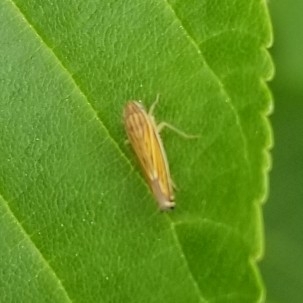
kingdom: Animalia
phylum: Arthropoda
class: Insecta
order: Hemiptera
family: Cicadellidae
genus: Sibovia
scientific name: Sibovia occatoria
